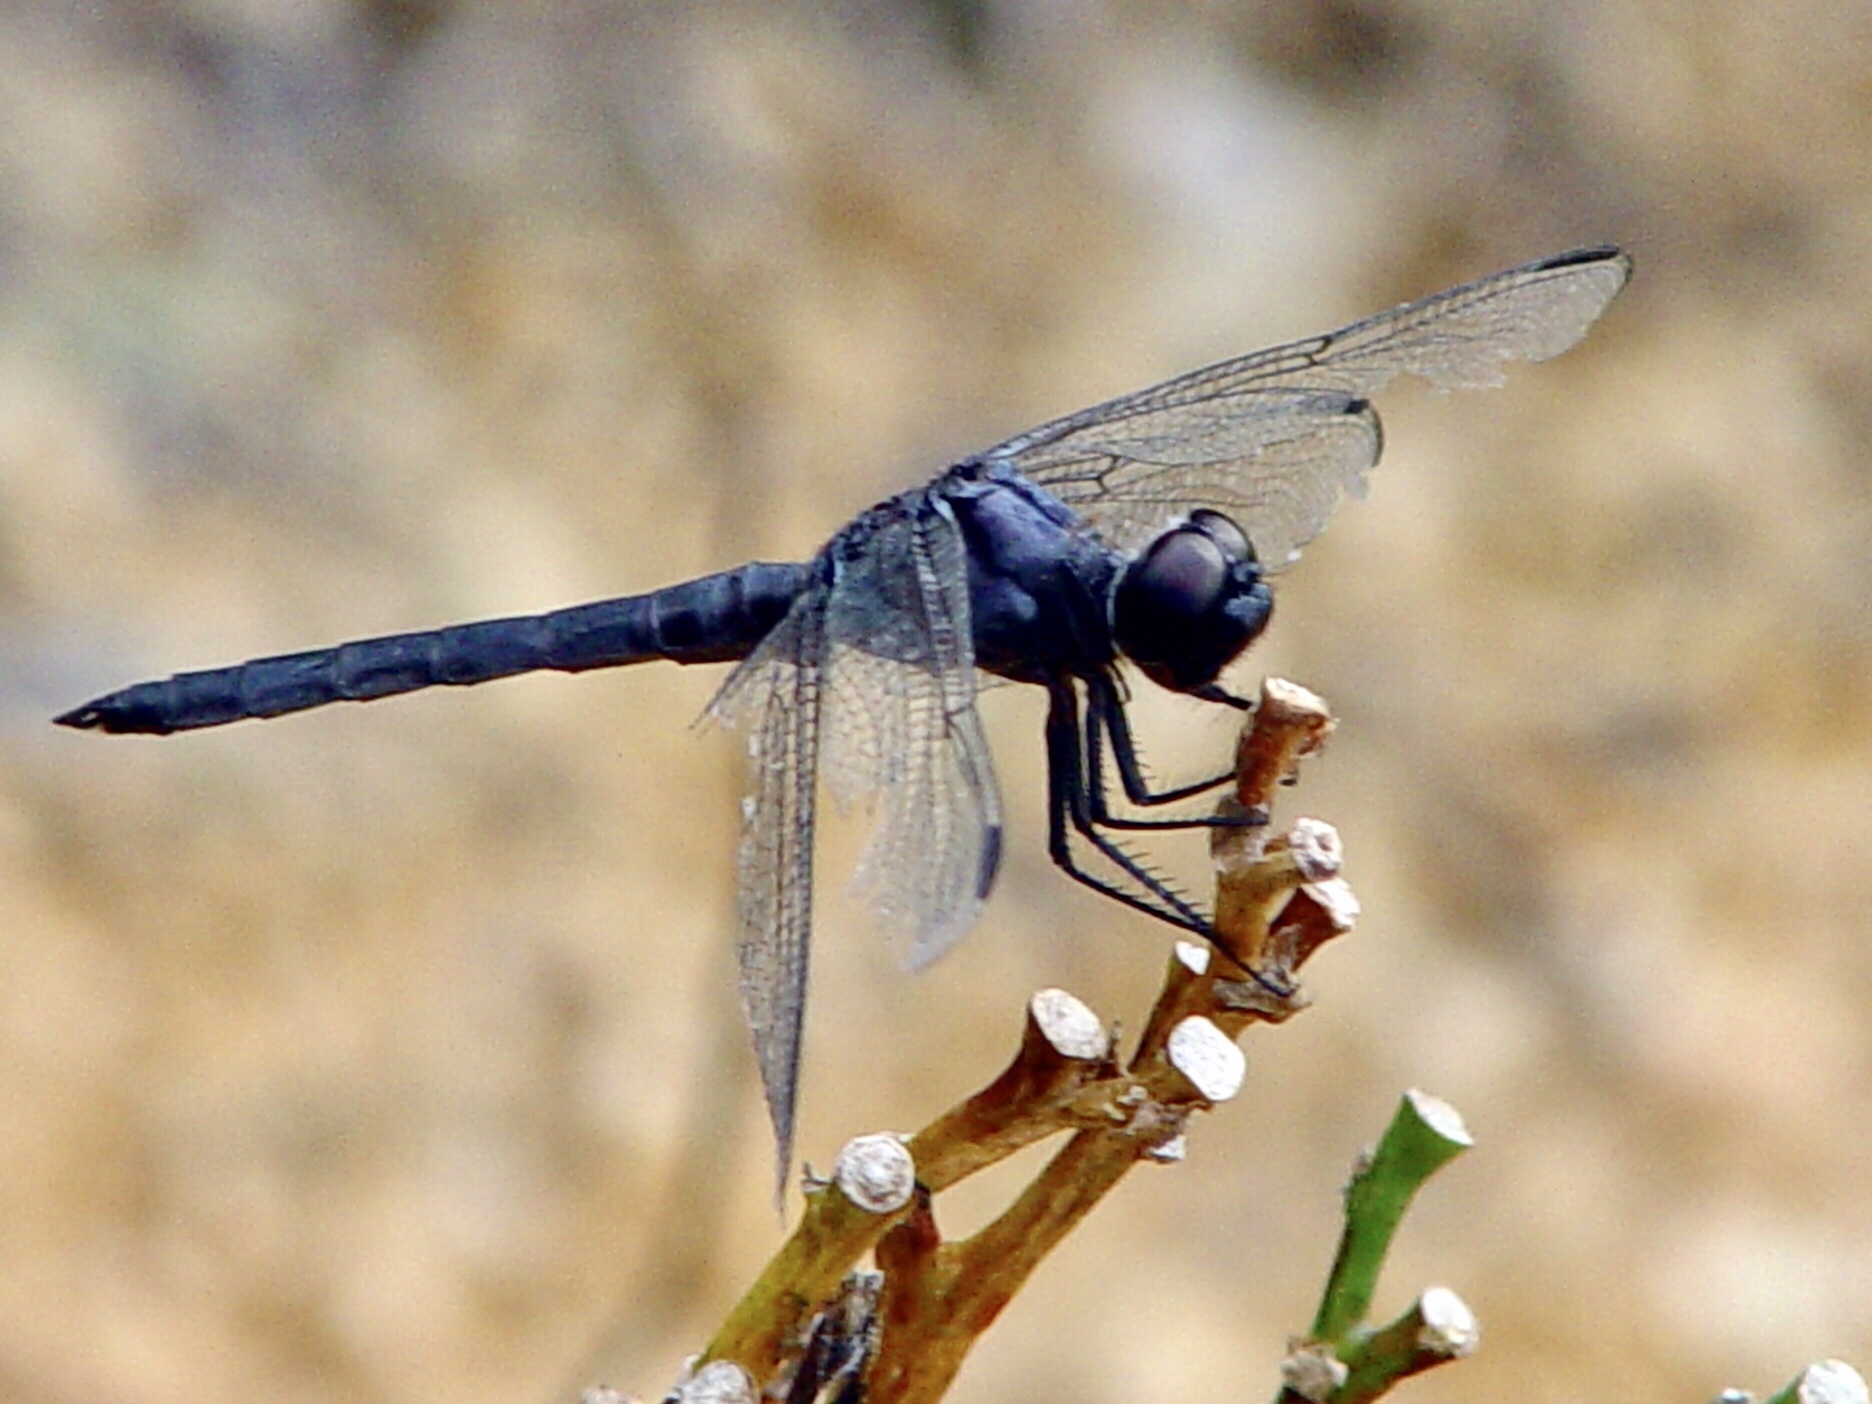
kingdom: Animalia
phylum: Arthropoda
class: Insecta
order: Odonata
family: Libellulidae
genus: Libellula
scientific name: Libellula incesta
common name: Slaty skimmer
